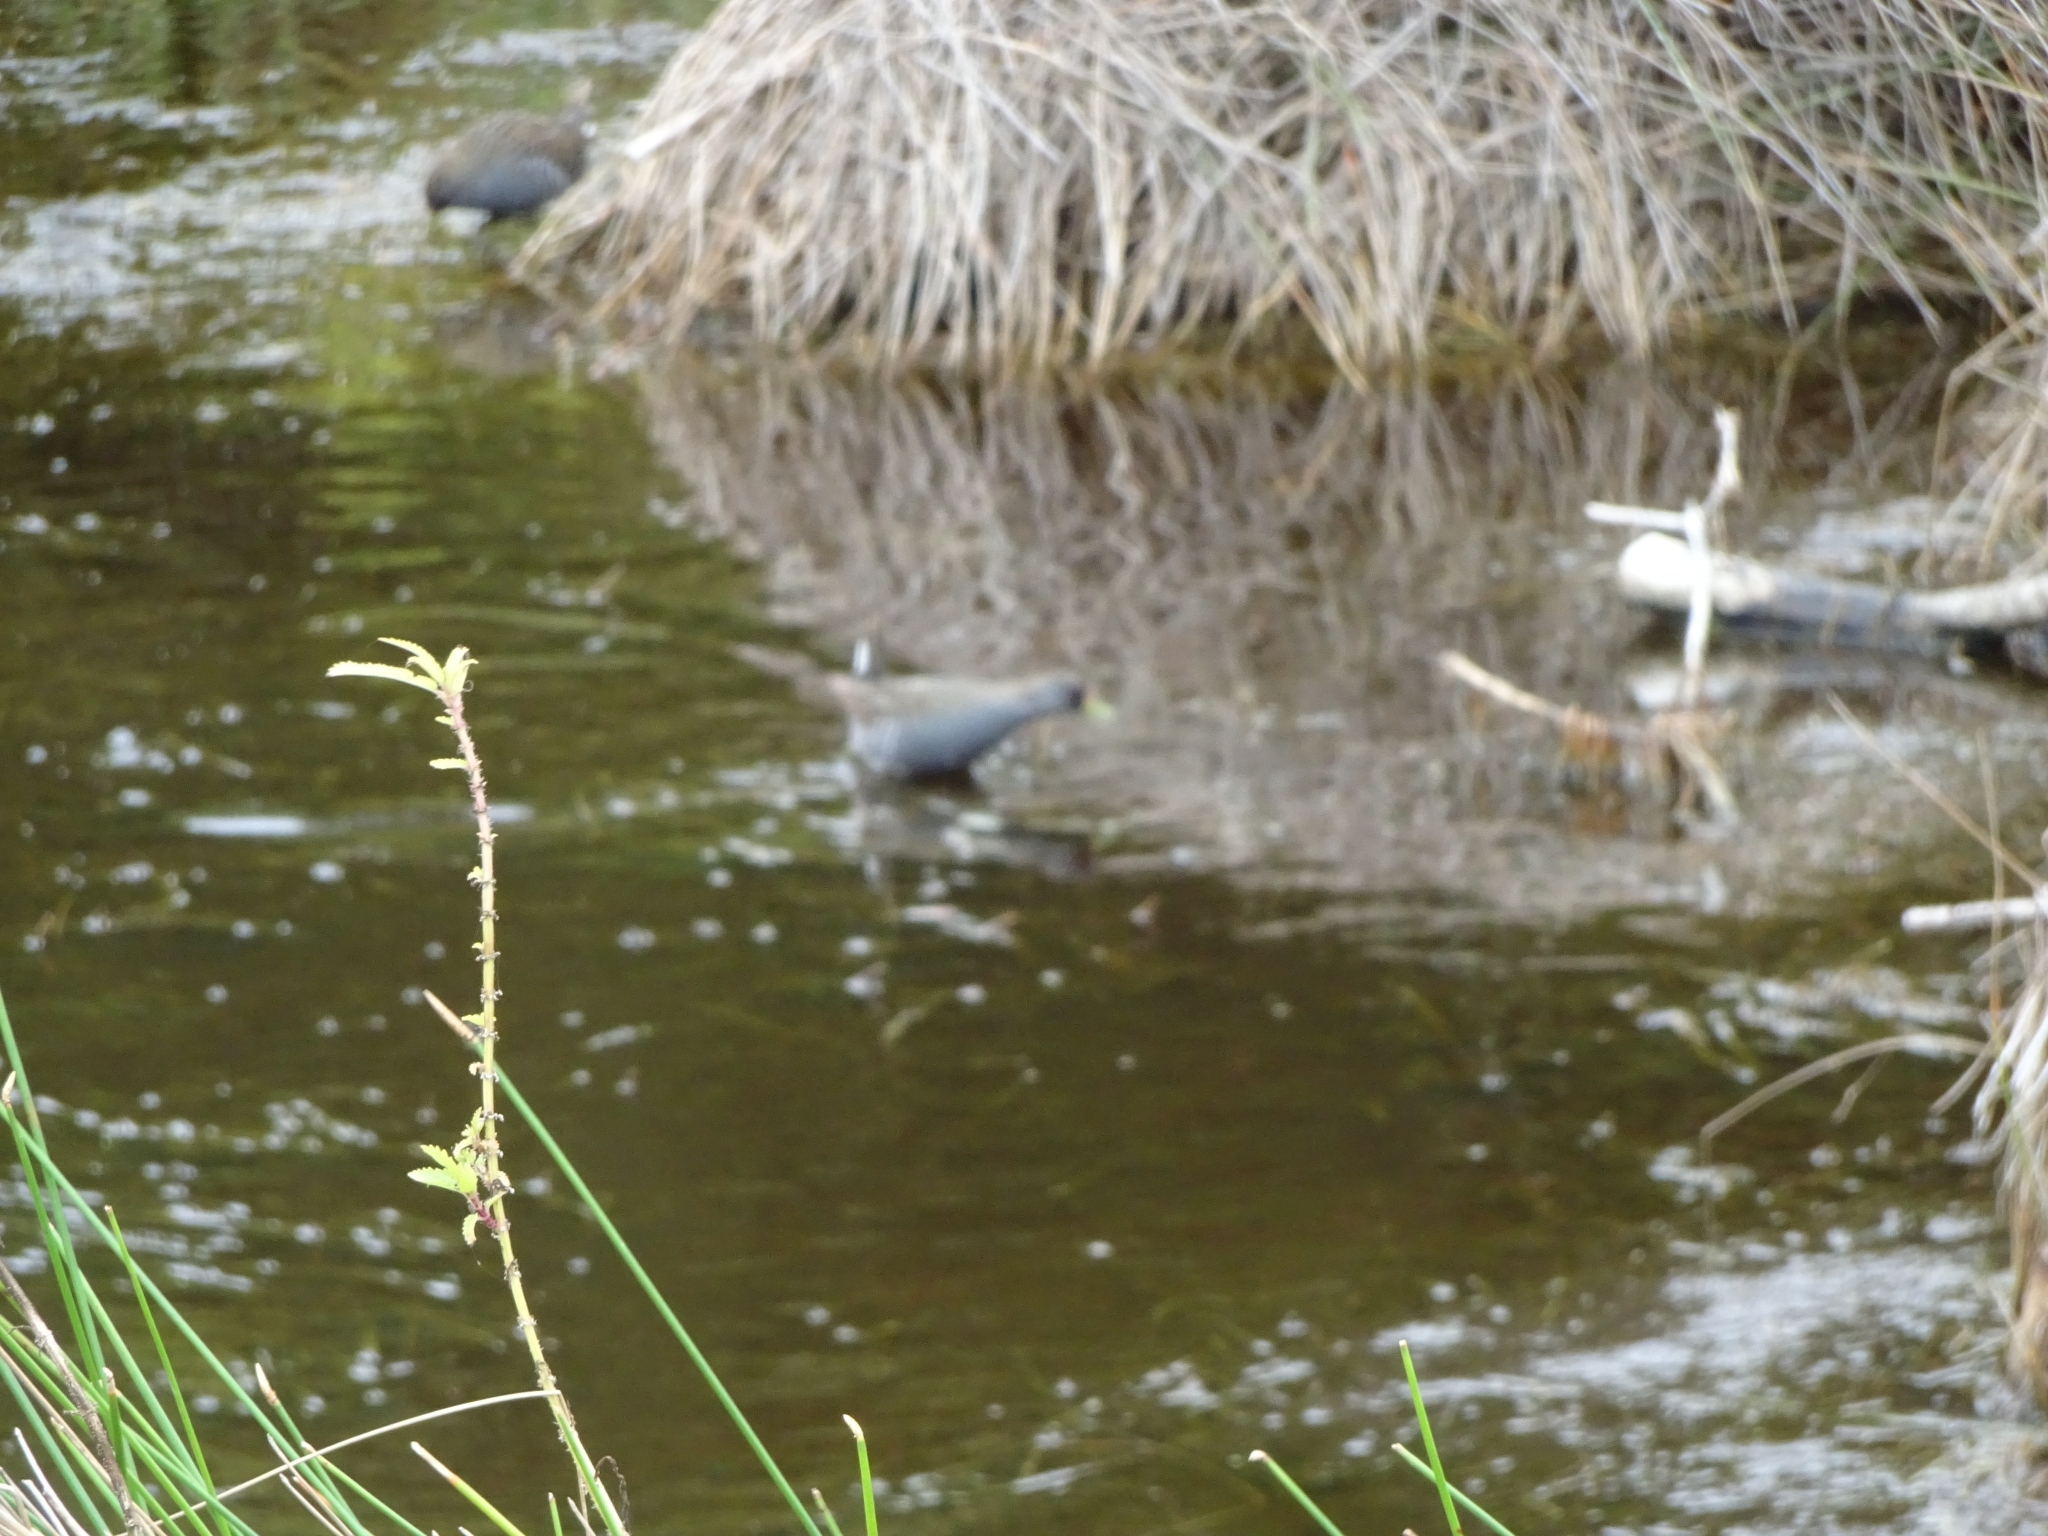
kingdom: Animalia
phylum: Chordata
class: Aves
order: Gruiformes
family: Rallidae
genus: Porzana
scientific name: Porzana fluminea
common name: Australian crake
